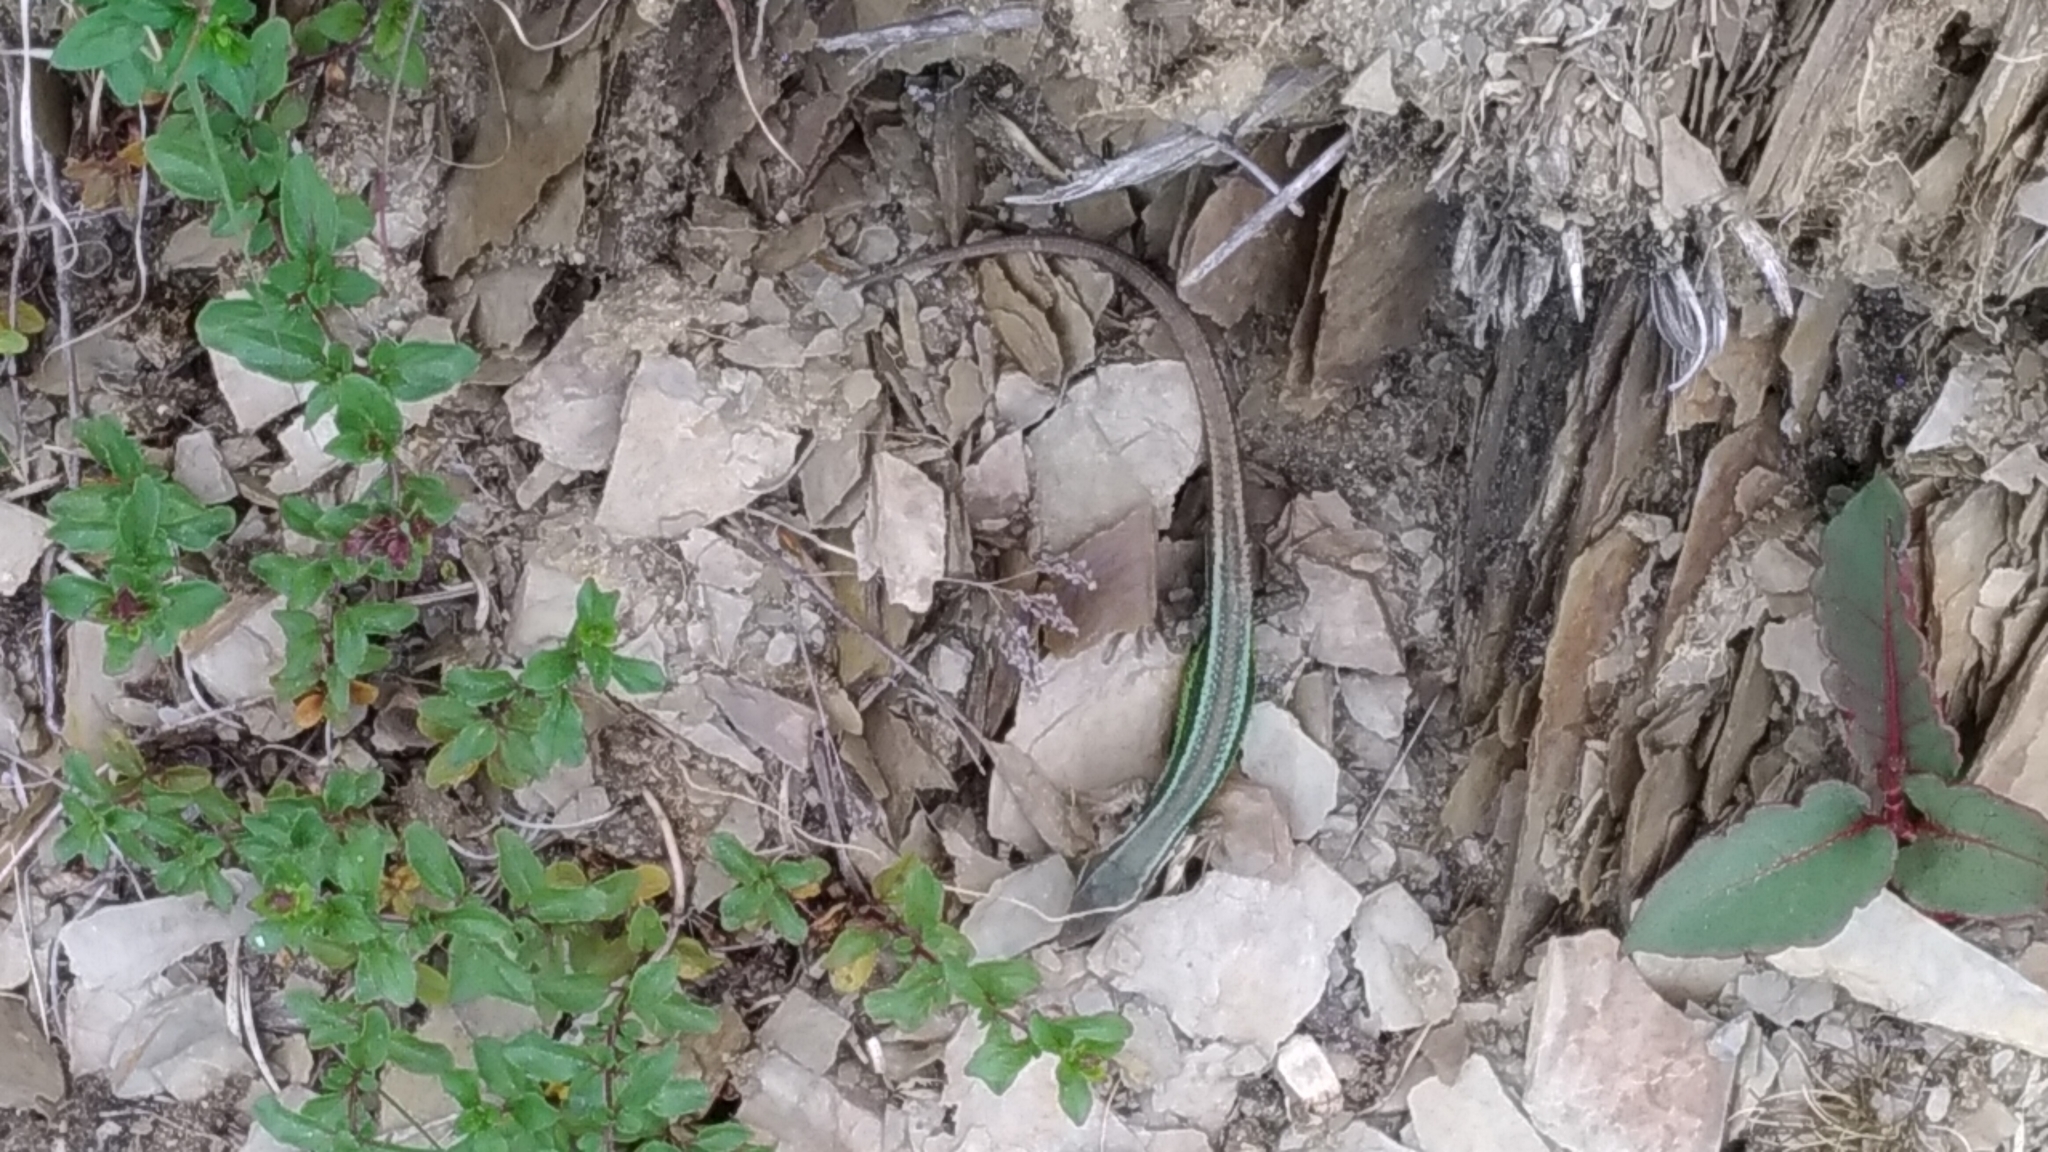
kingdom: Animalia
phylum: Chordata
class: Squamata
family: Lacertidae
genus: Takydromus
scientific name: Takydromus hsuehshanensis
